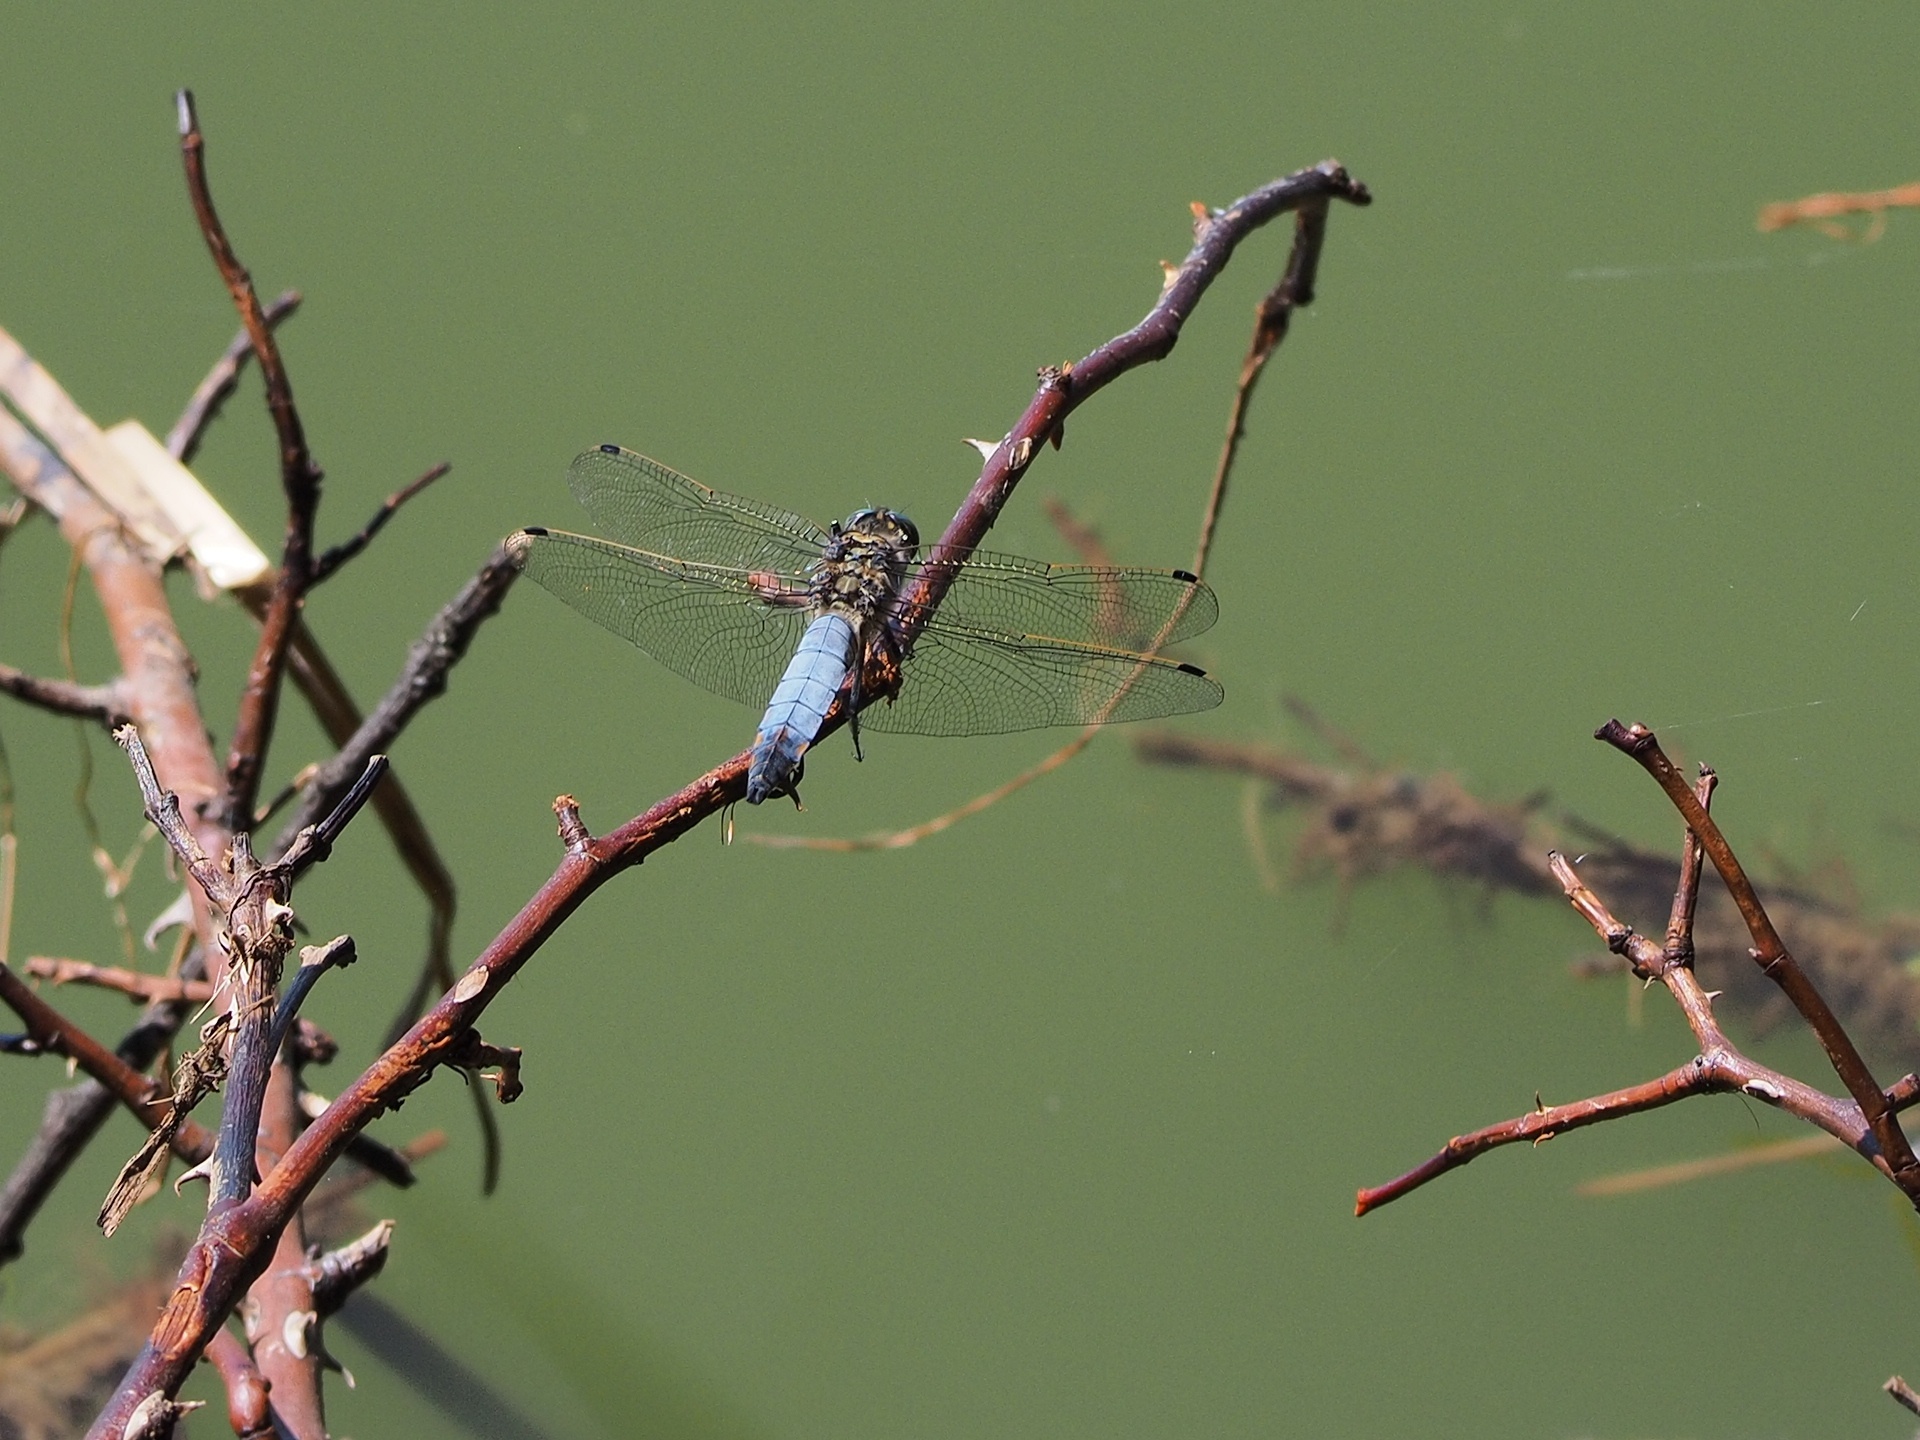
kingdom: Animalia
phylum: Arthropoda
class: Insecta
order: Odonata
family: Libellulidae
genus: Orthetrum
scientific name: Orthetrum cancellatum
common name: Black-tailed skimmer
